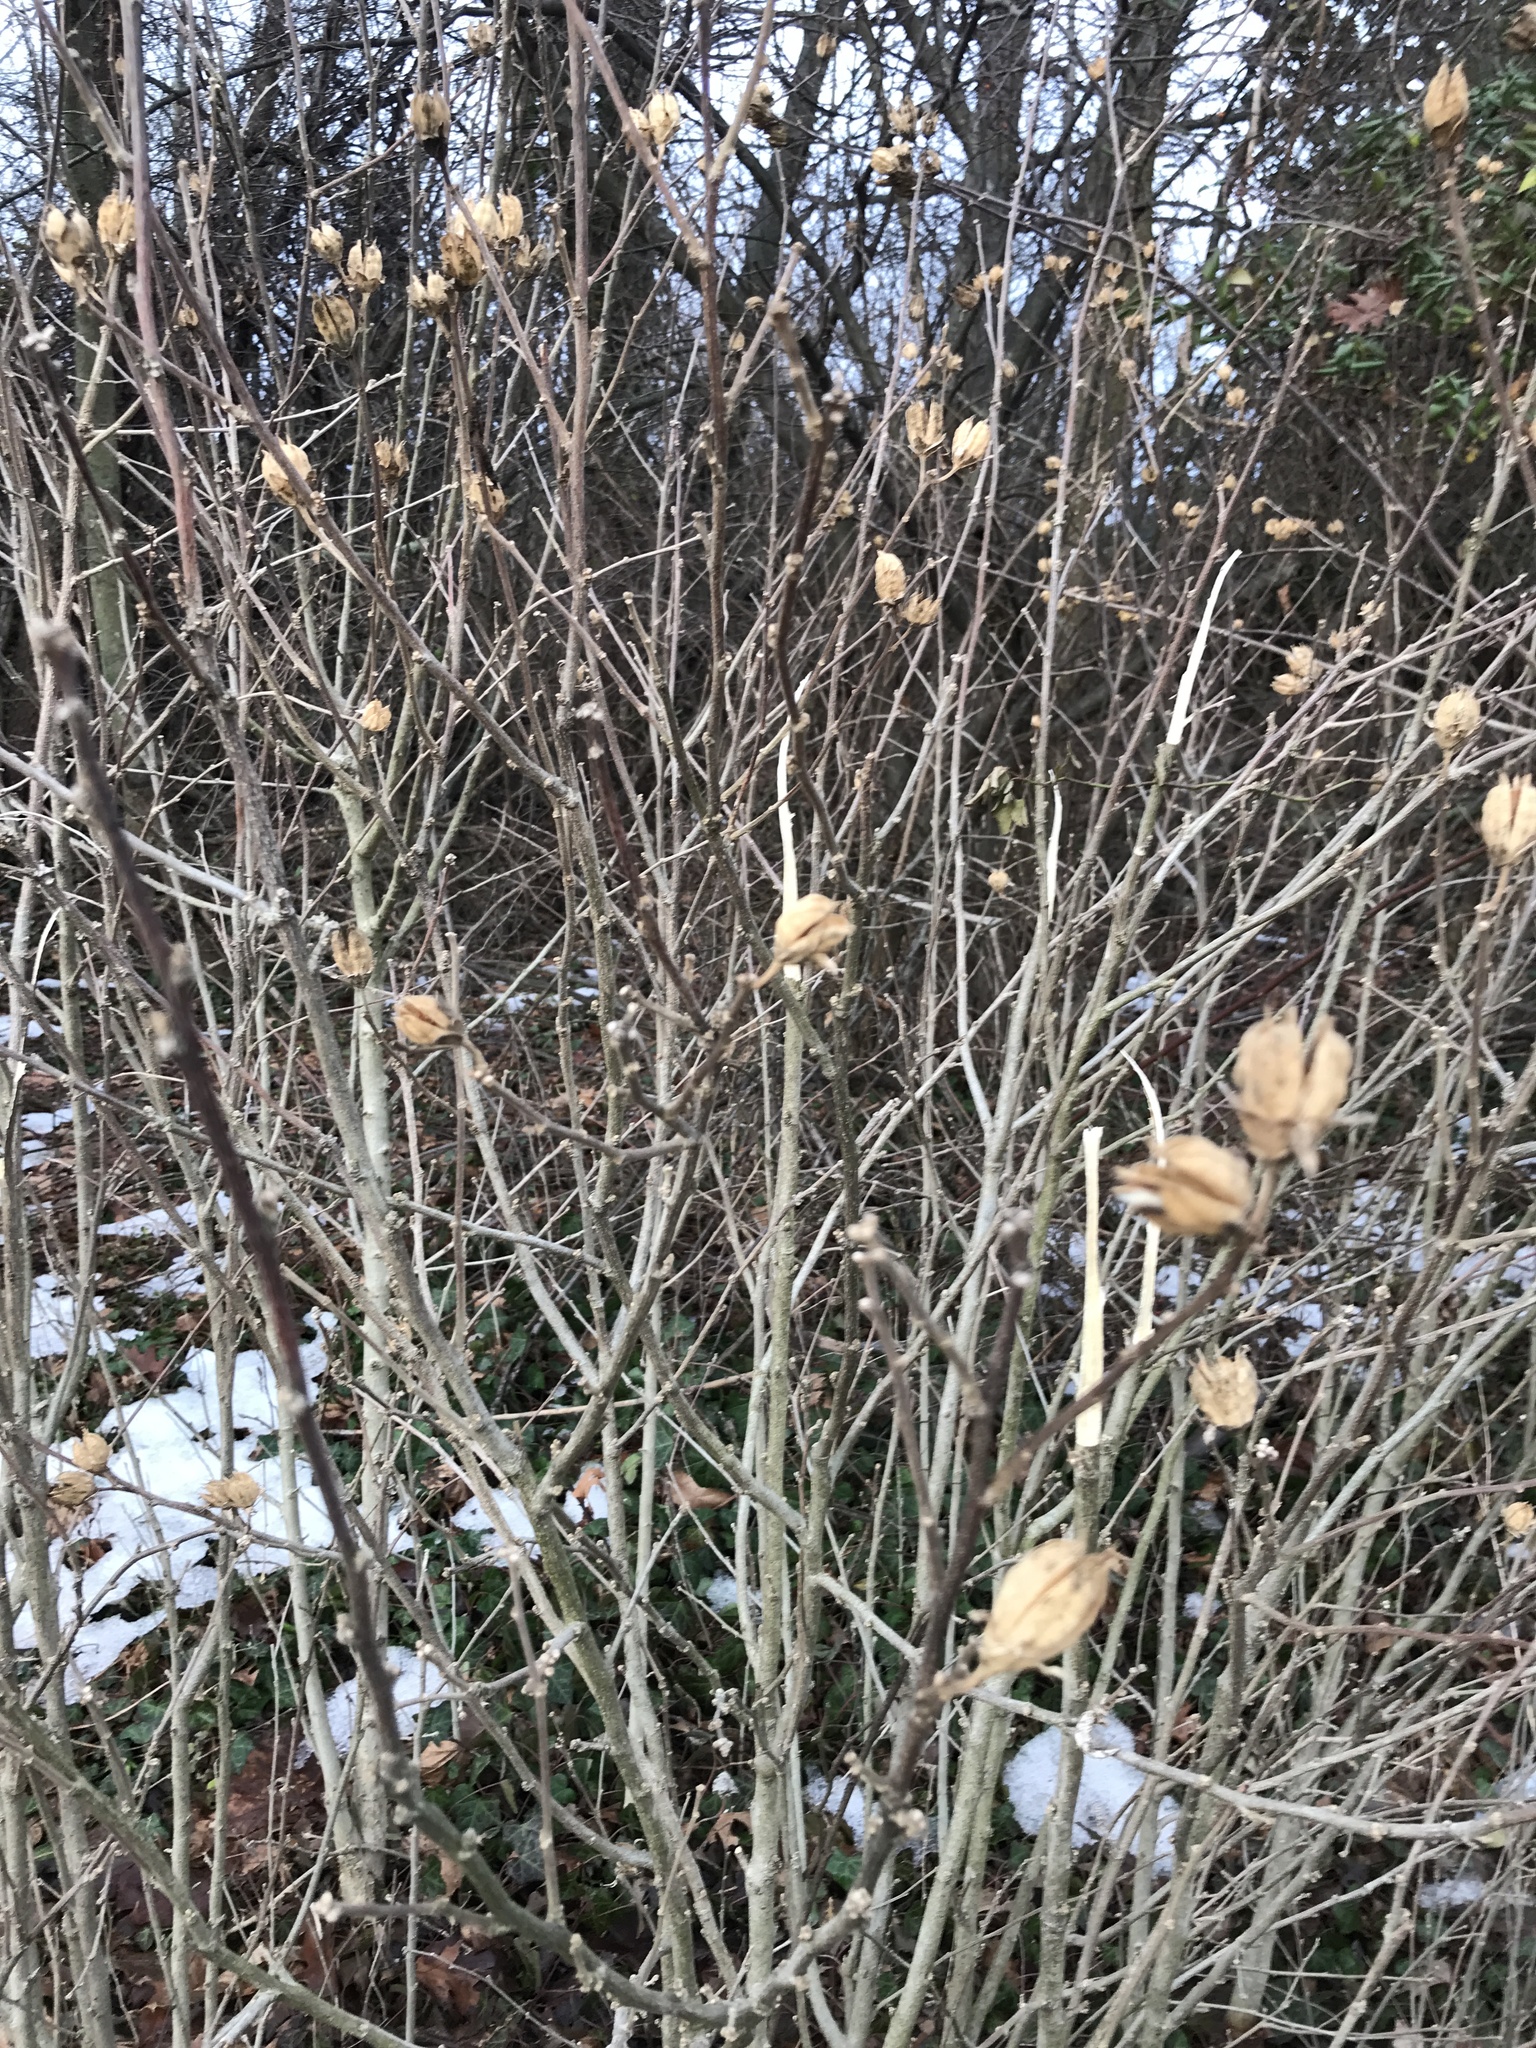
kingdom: Plantae
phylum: Tracheophyta
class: Magnoliopsida
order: Malvales
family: Malvaceae
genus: Hibiscus
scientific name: Hibiscus syriacus
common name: Syrian ketmia
